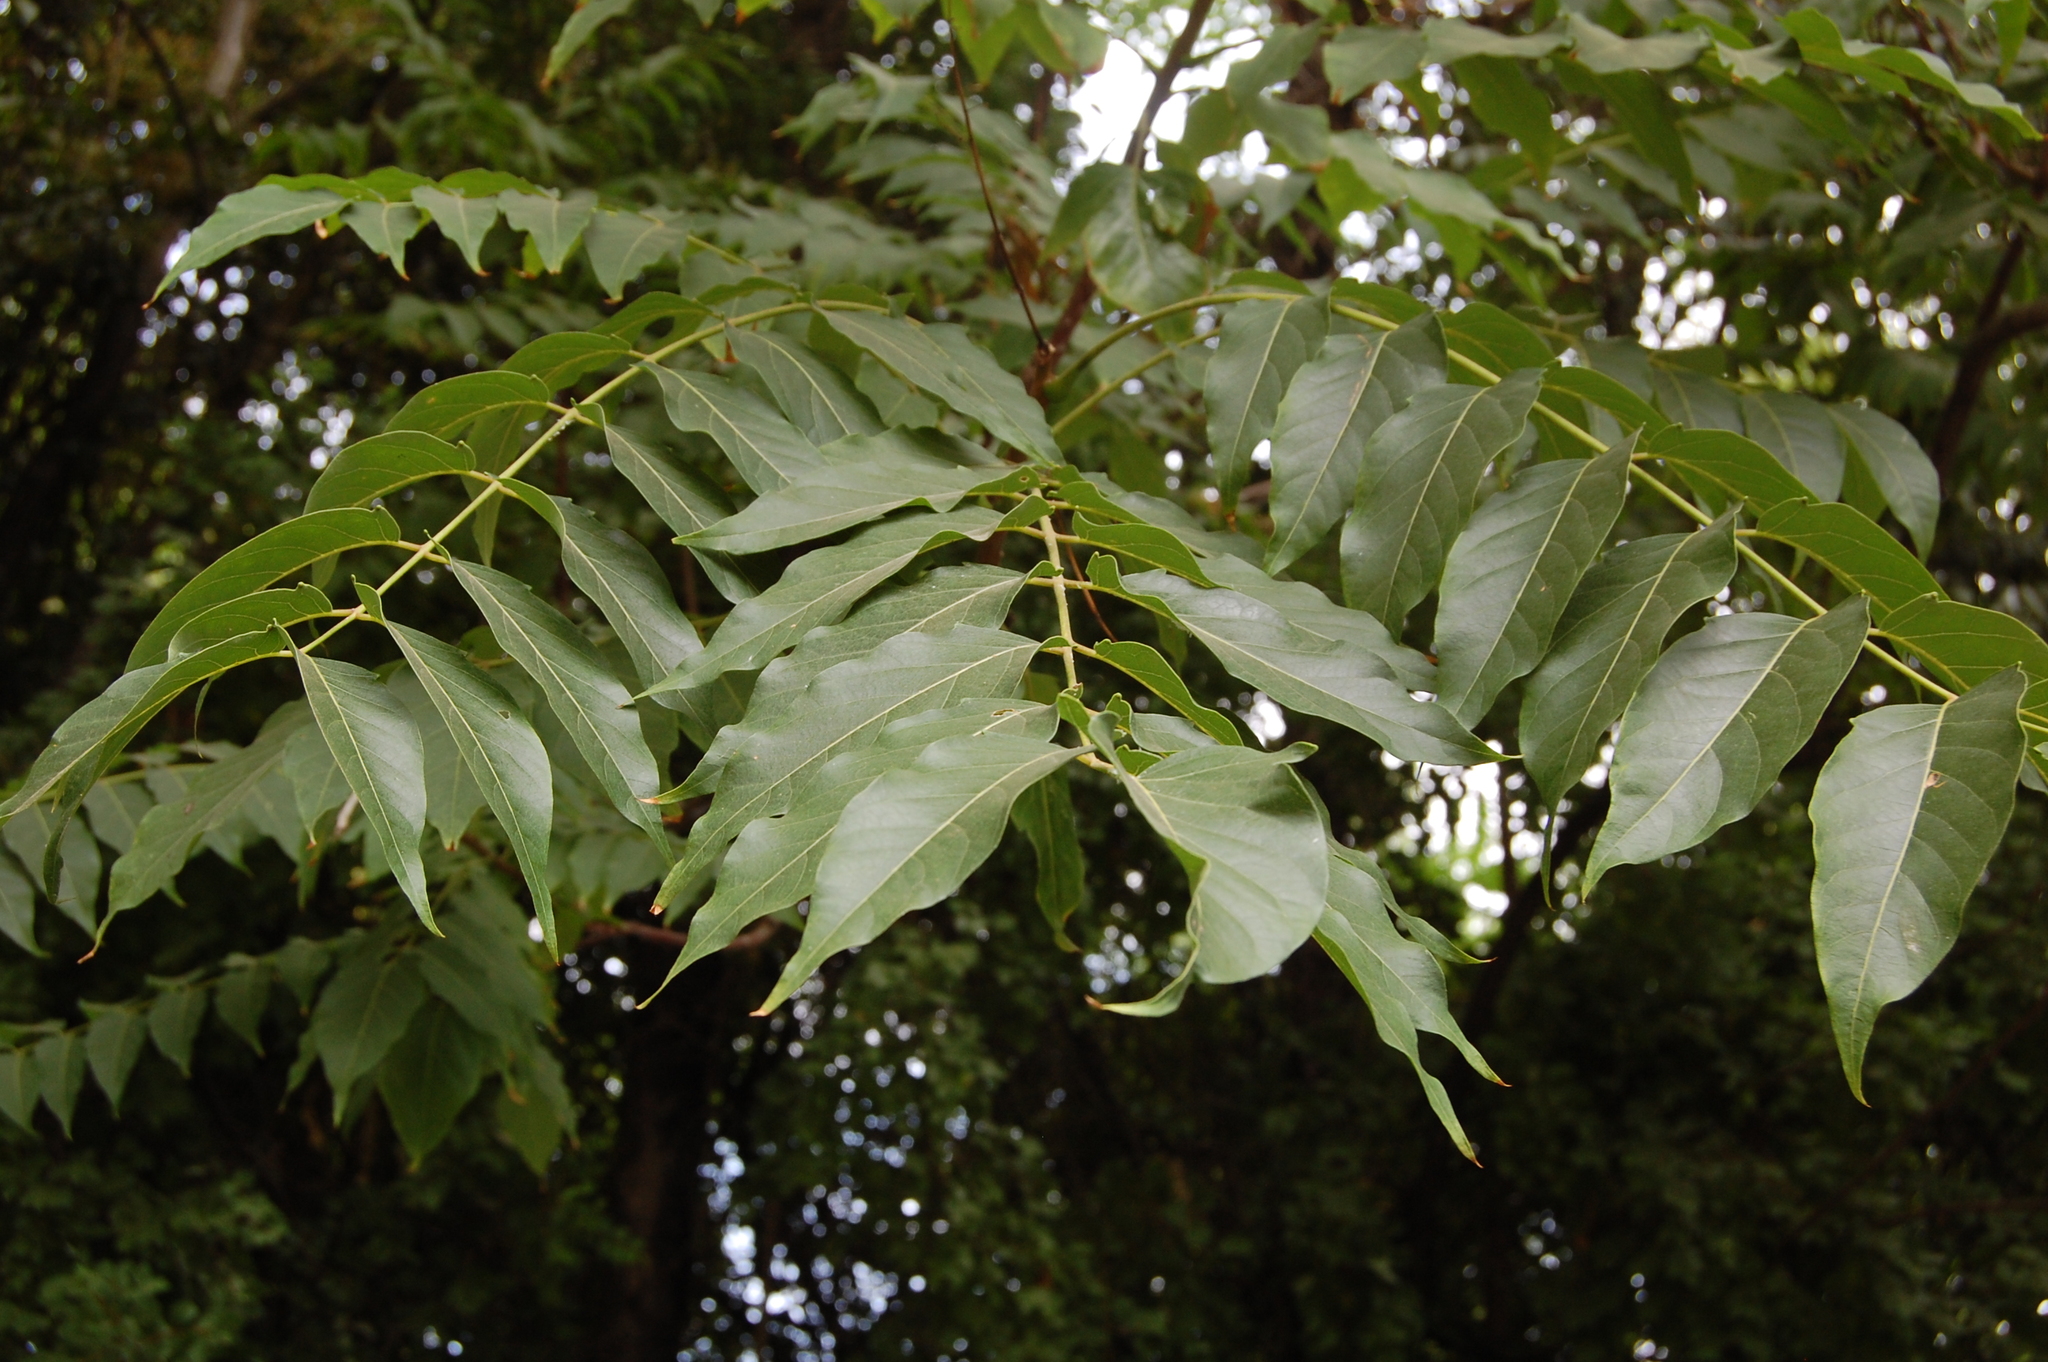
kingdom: Plantae
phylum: Tracheophyta
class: Magnoliopsida
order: Sapindales
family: Simaroubaceae
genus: Ailanthus
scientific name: Ailanthus altissima
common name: Tree-of-heaven
